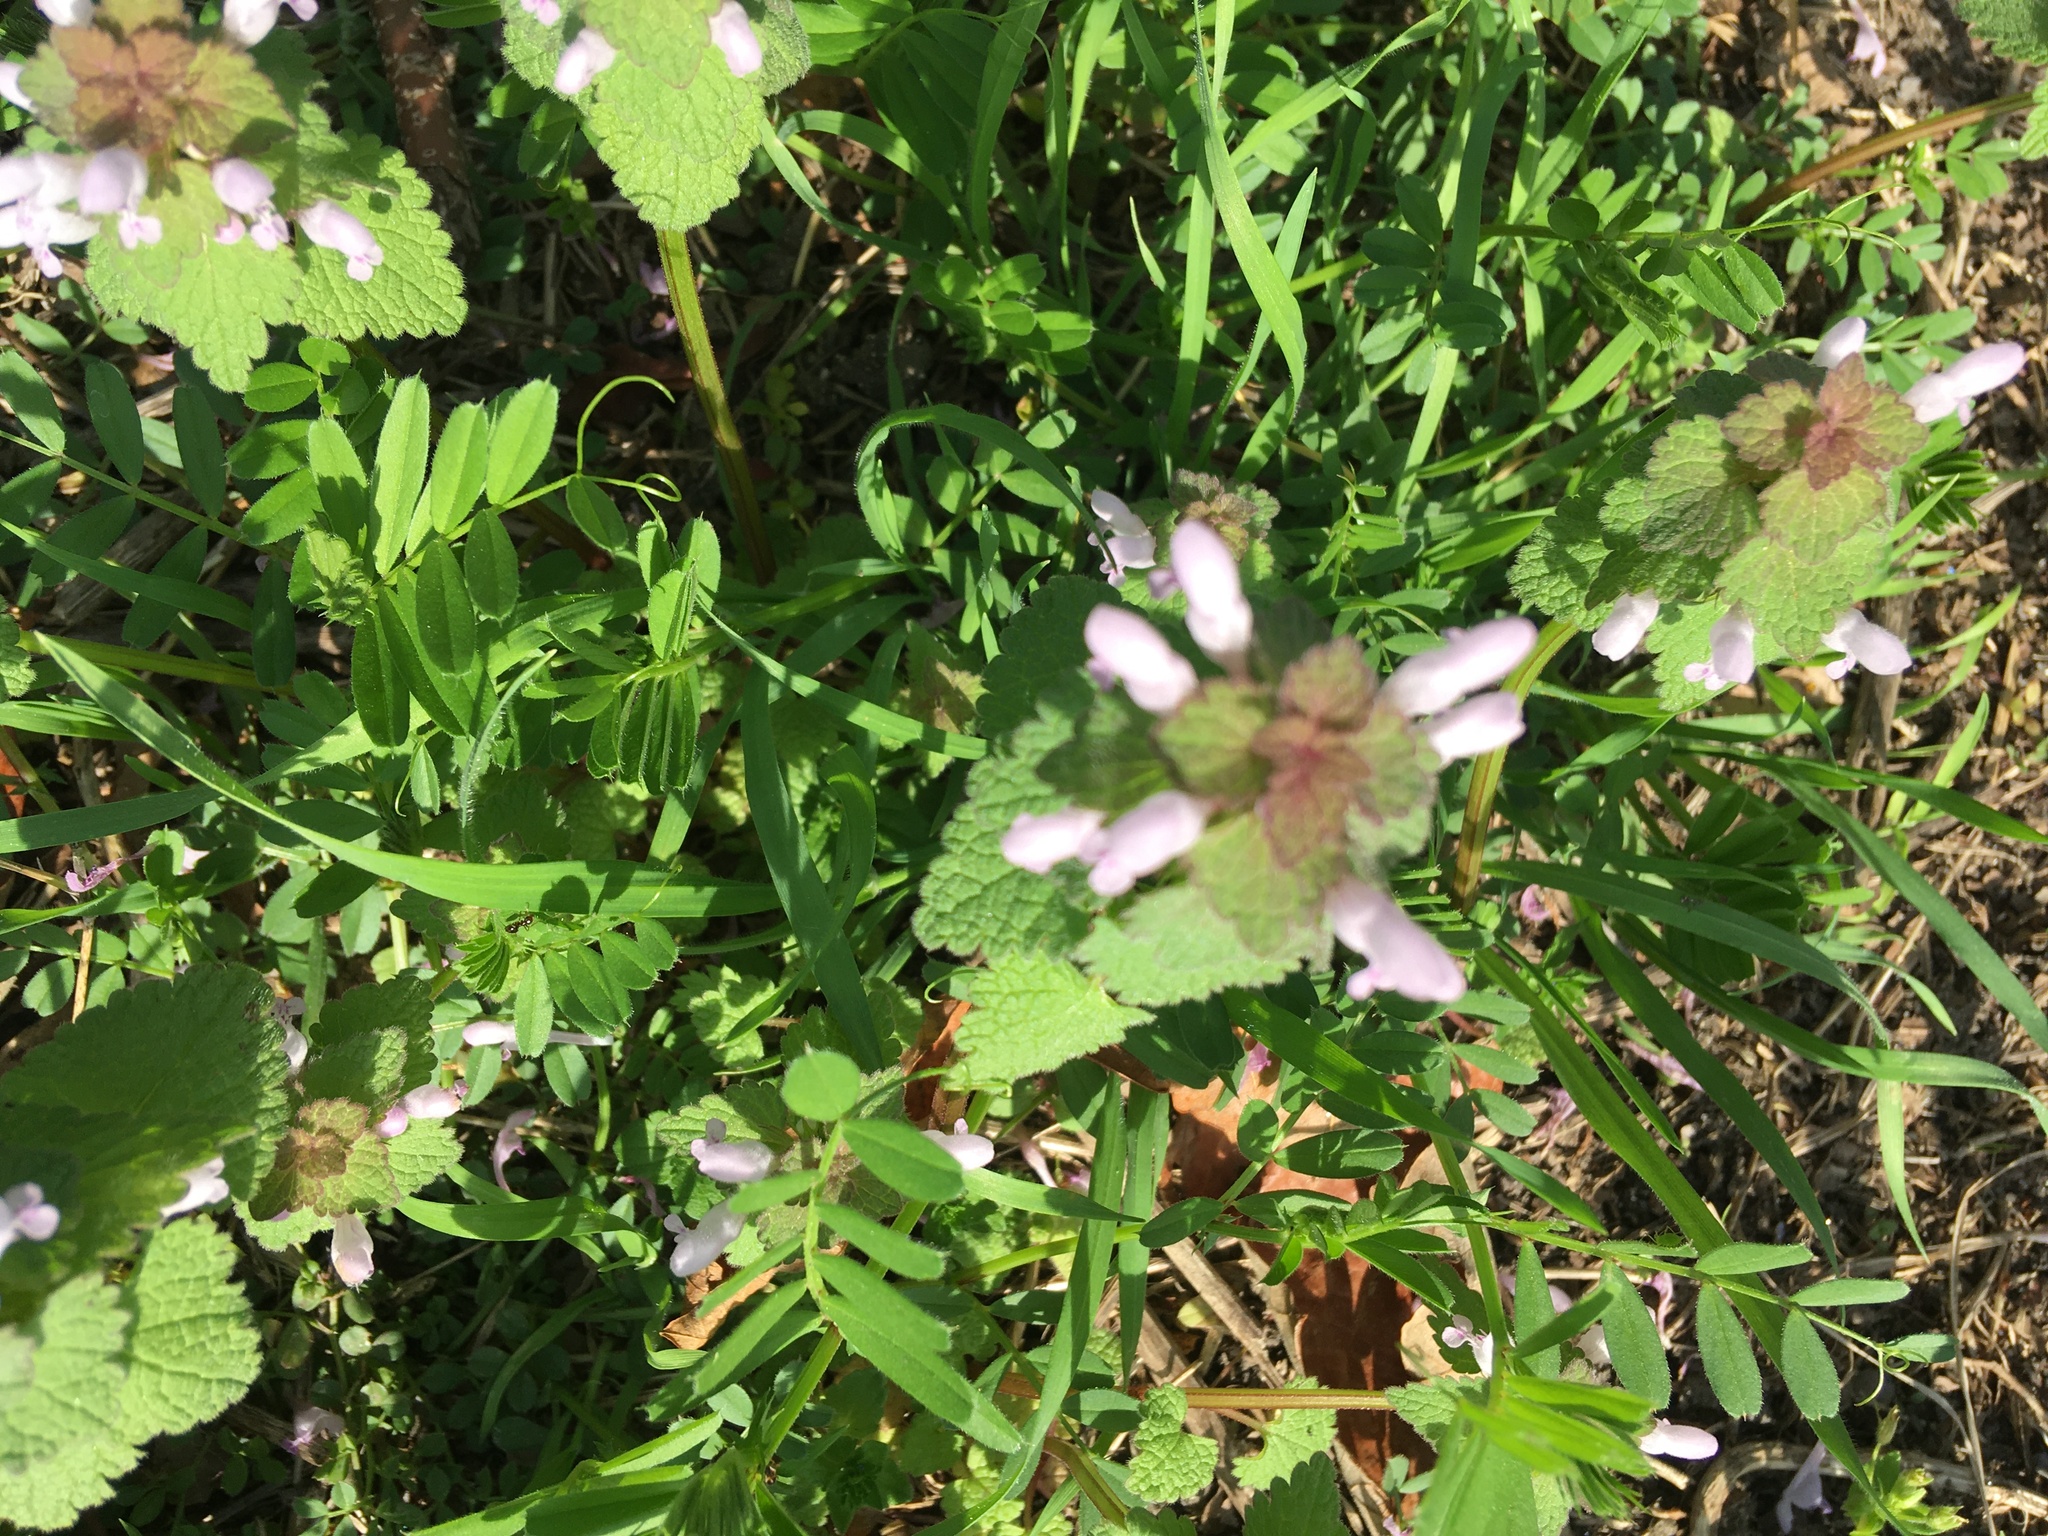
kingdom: Plantae
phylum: Tracheophyta
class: Magnoliopsida
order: Lamiales
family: Lamiaceae
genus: Lamium
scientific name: Lamium purpureum
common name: Red dead-nettle
